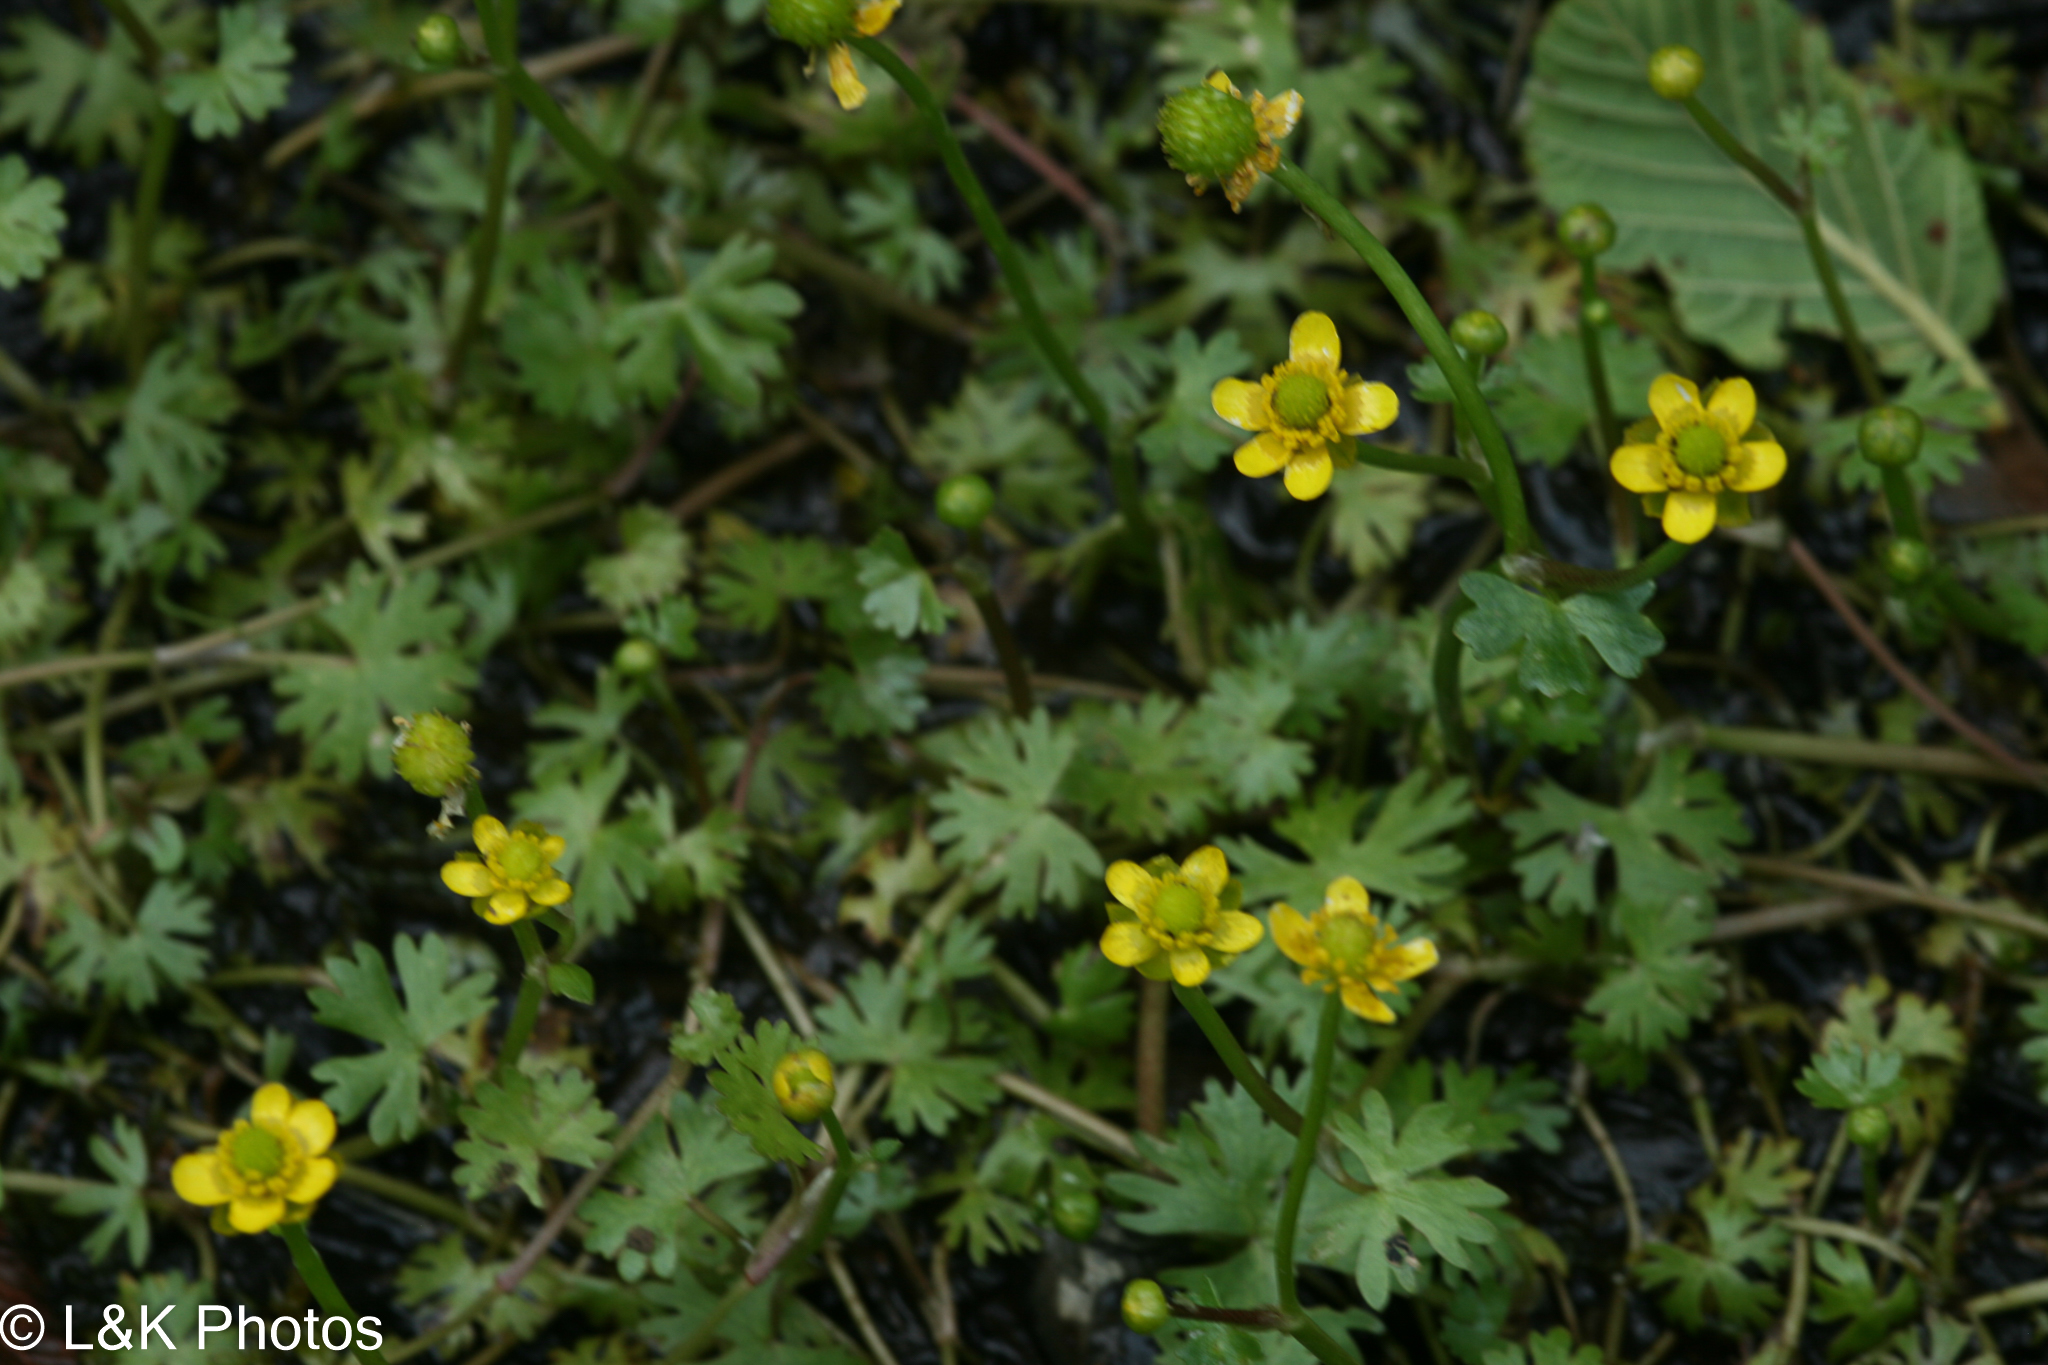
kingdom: Plantae
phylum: Tracheophyta
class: Magnoliopsida
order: Ranunculales
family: Ranunculaceae
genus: Ranunculus
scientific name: Ranunculus gmelinii
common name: Gmelin's buttercup
